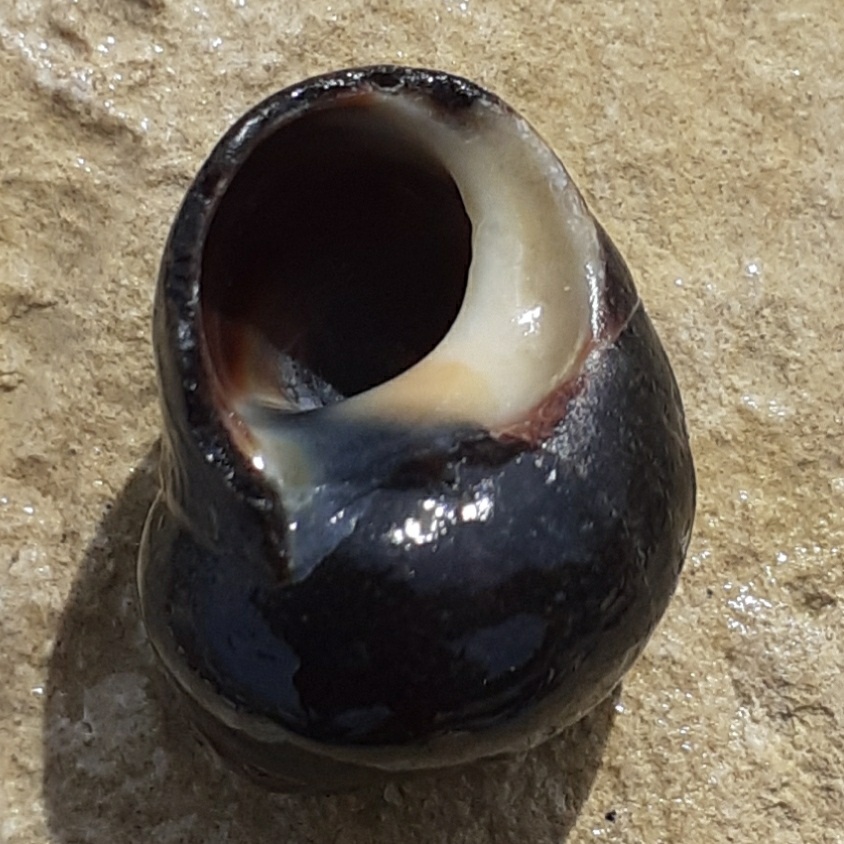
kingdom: Animalia
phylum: Mollusca
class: Gastropoda
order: Littorinimorpha
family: Littorinidae
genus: Littorina
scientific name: Littorina littorea
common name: Common periwinkle
